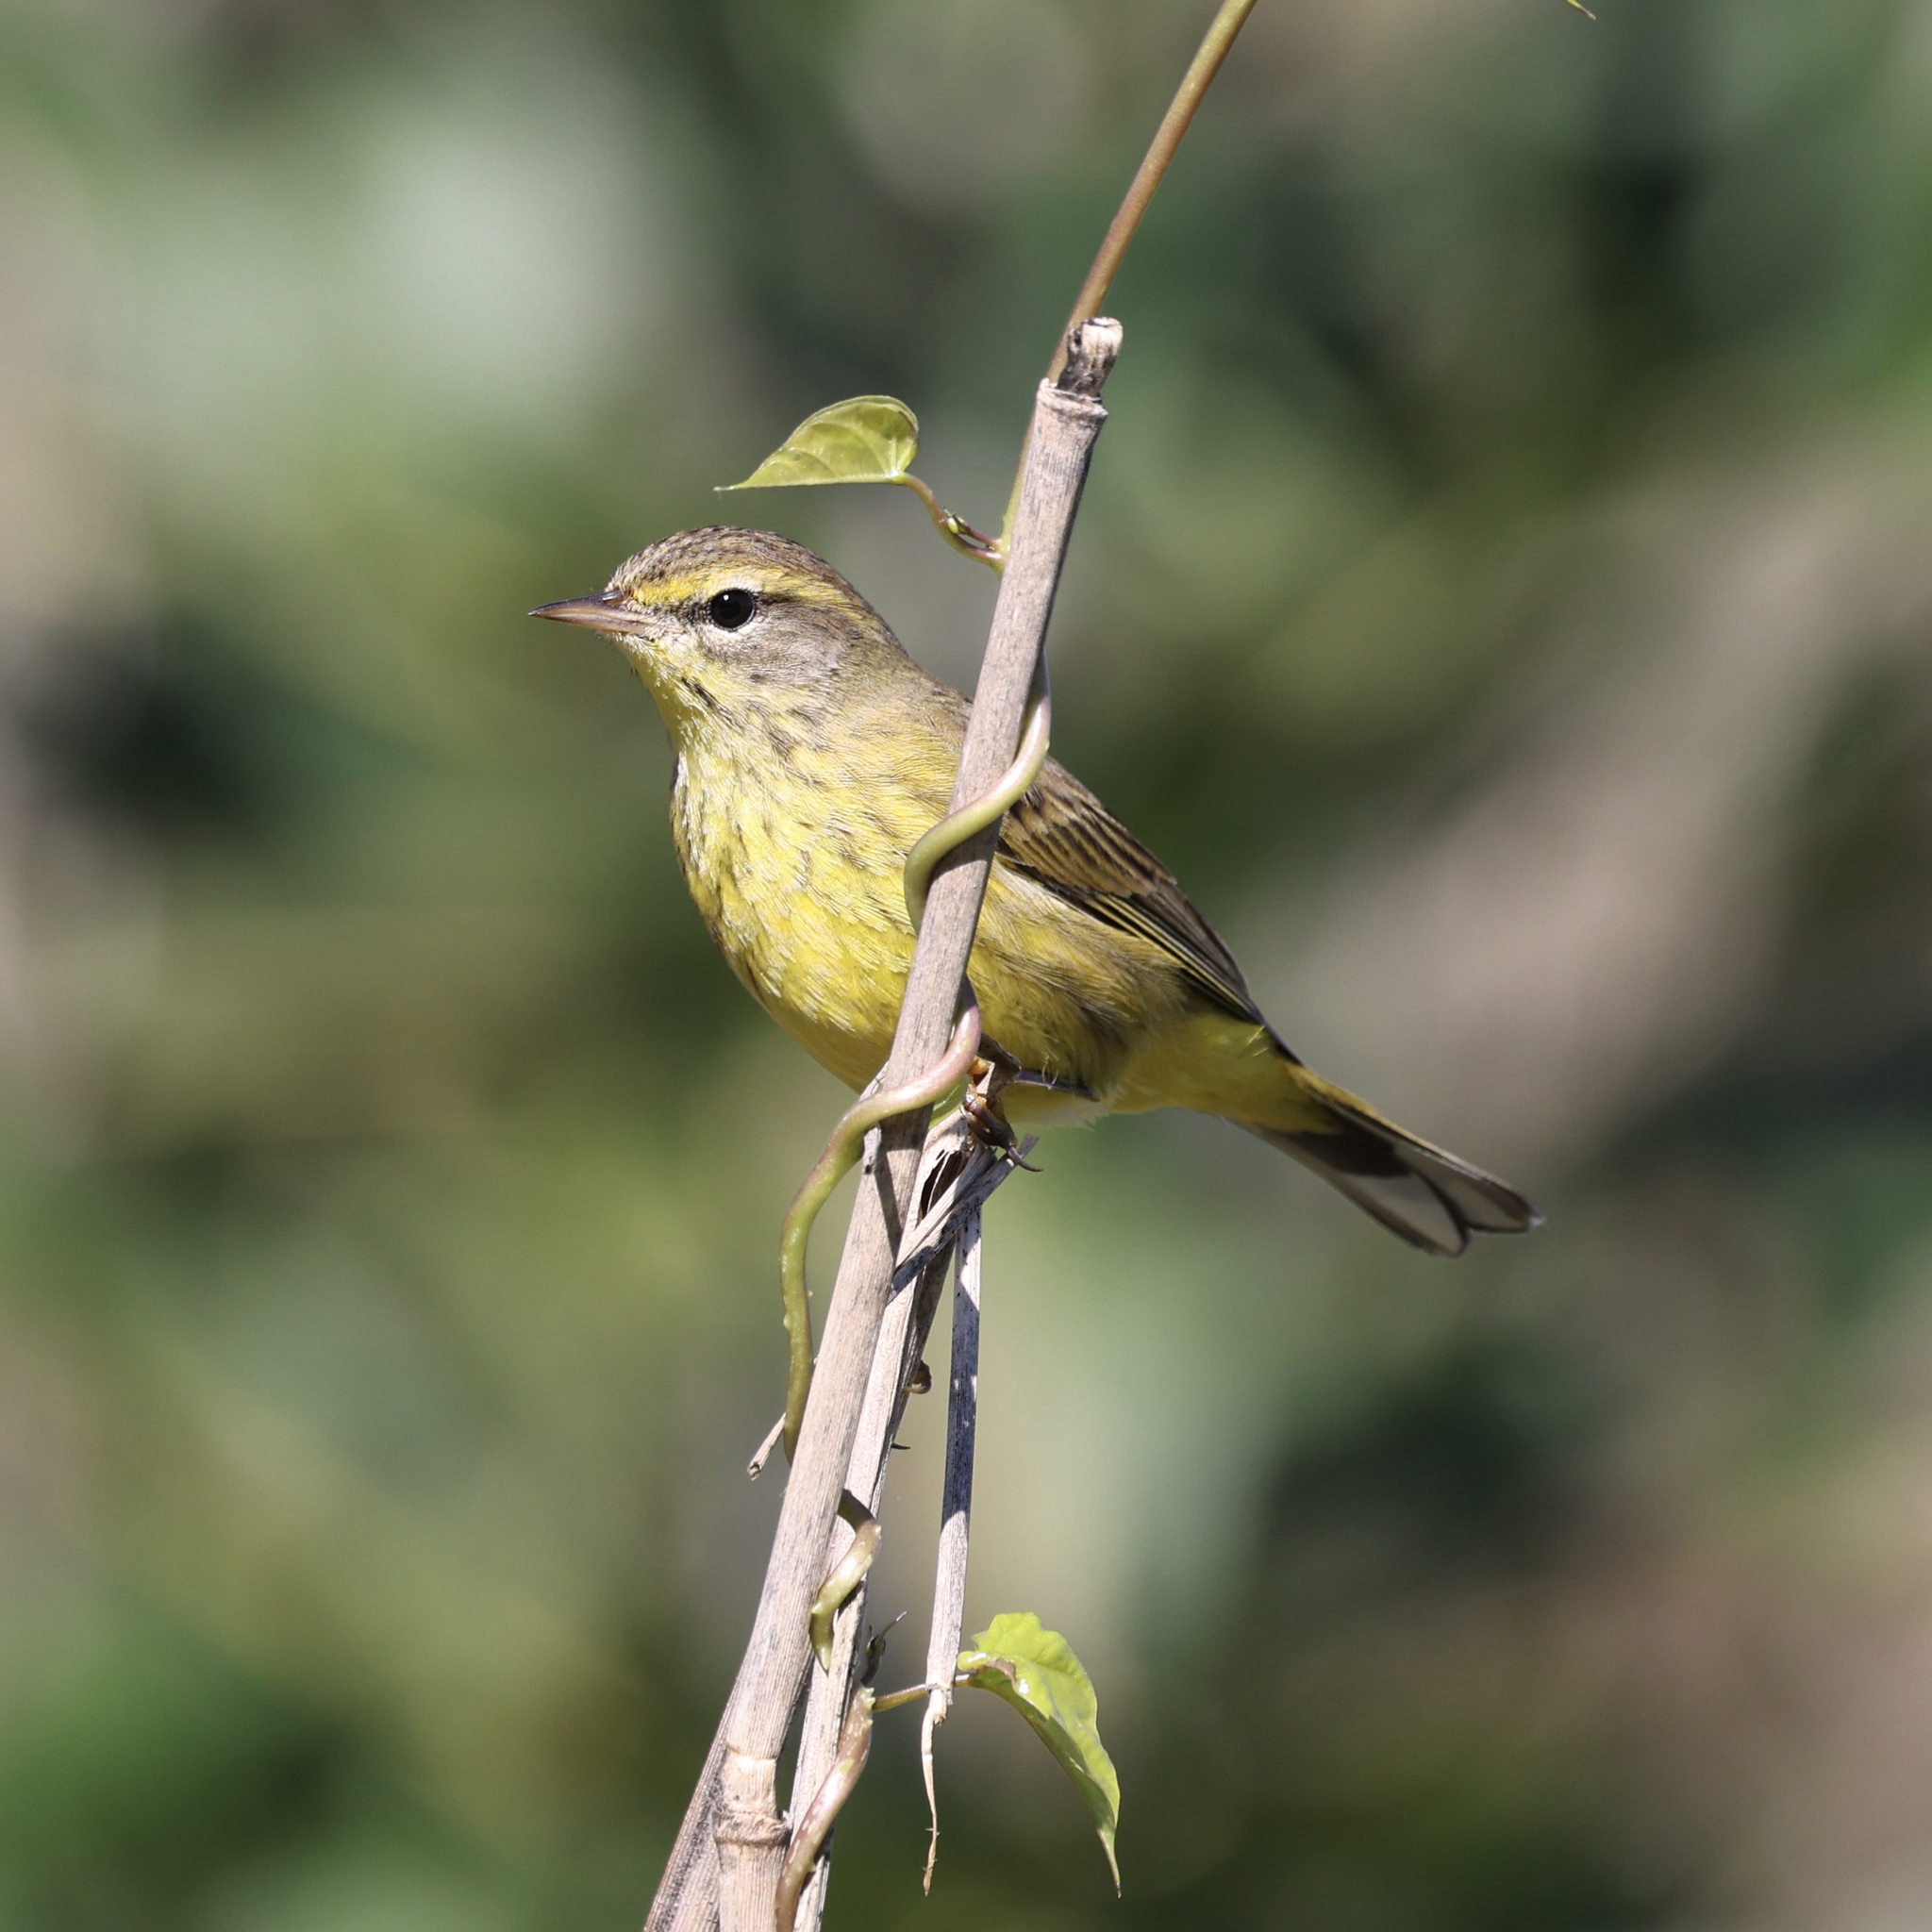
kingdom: Animalia
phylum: Chordata
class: Aves
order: Passeriformes
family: Parulidae
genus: Setophaga
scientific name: Setophaga palmarum
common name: Palm warbler
